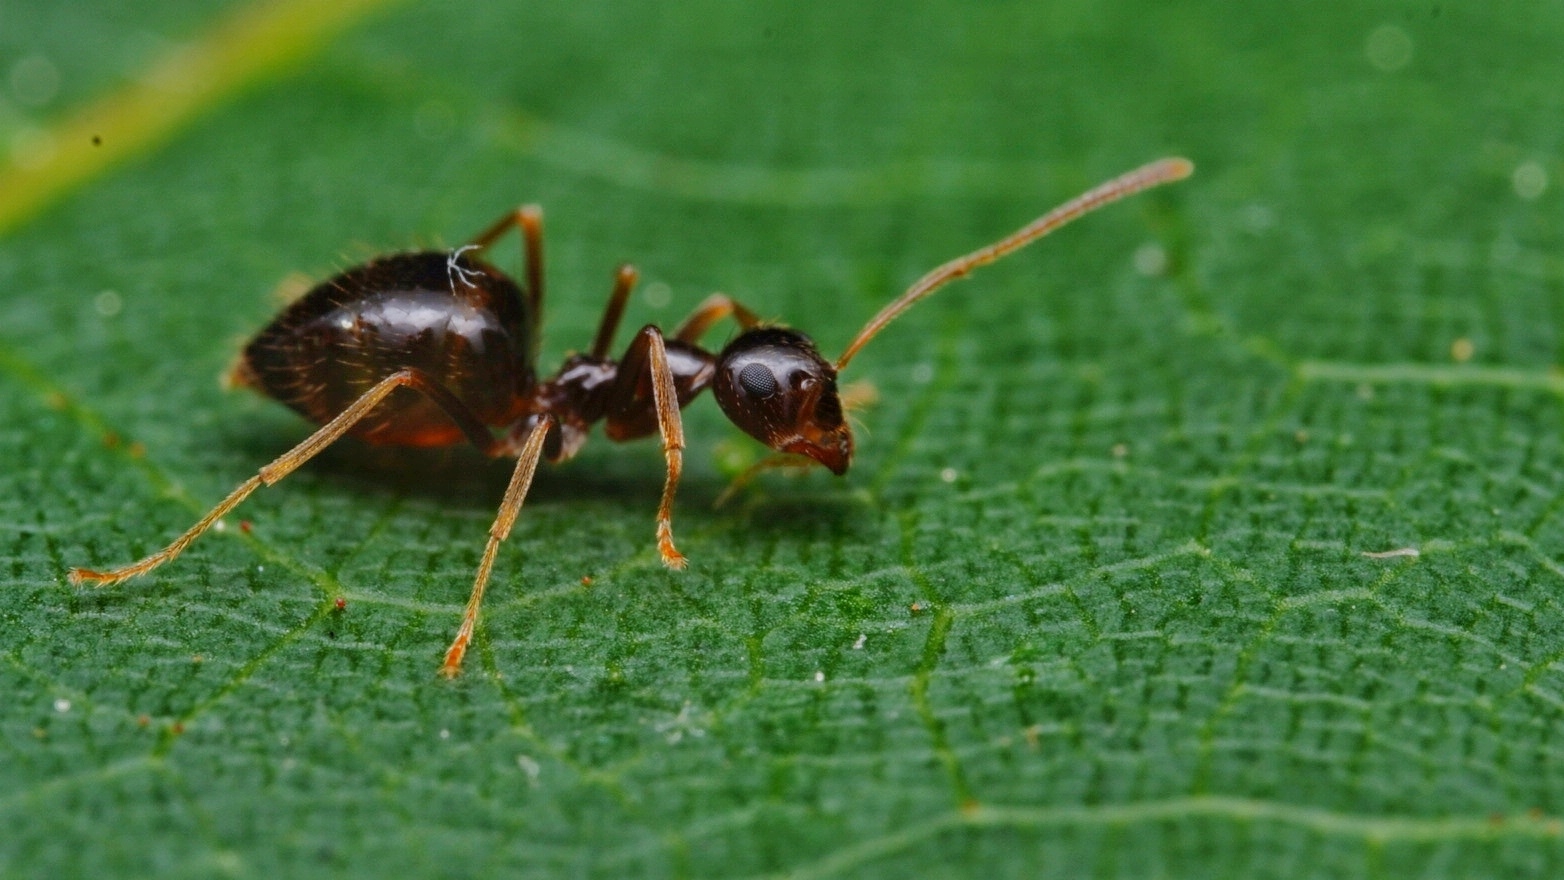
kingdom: Animalia
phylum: Arthropoda
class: Insecta
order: Hymenoptera
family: Formicidae
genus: Prenolepis
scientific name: Prenolepis imparis
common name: Small honey ant
